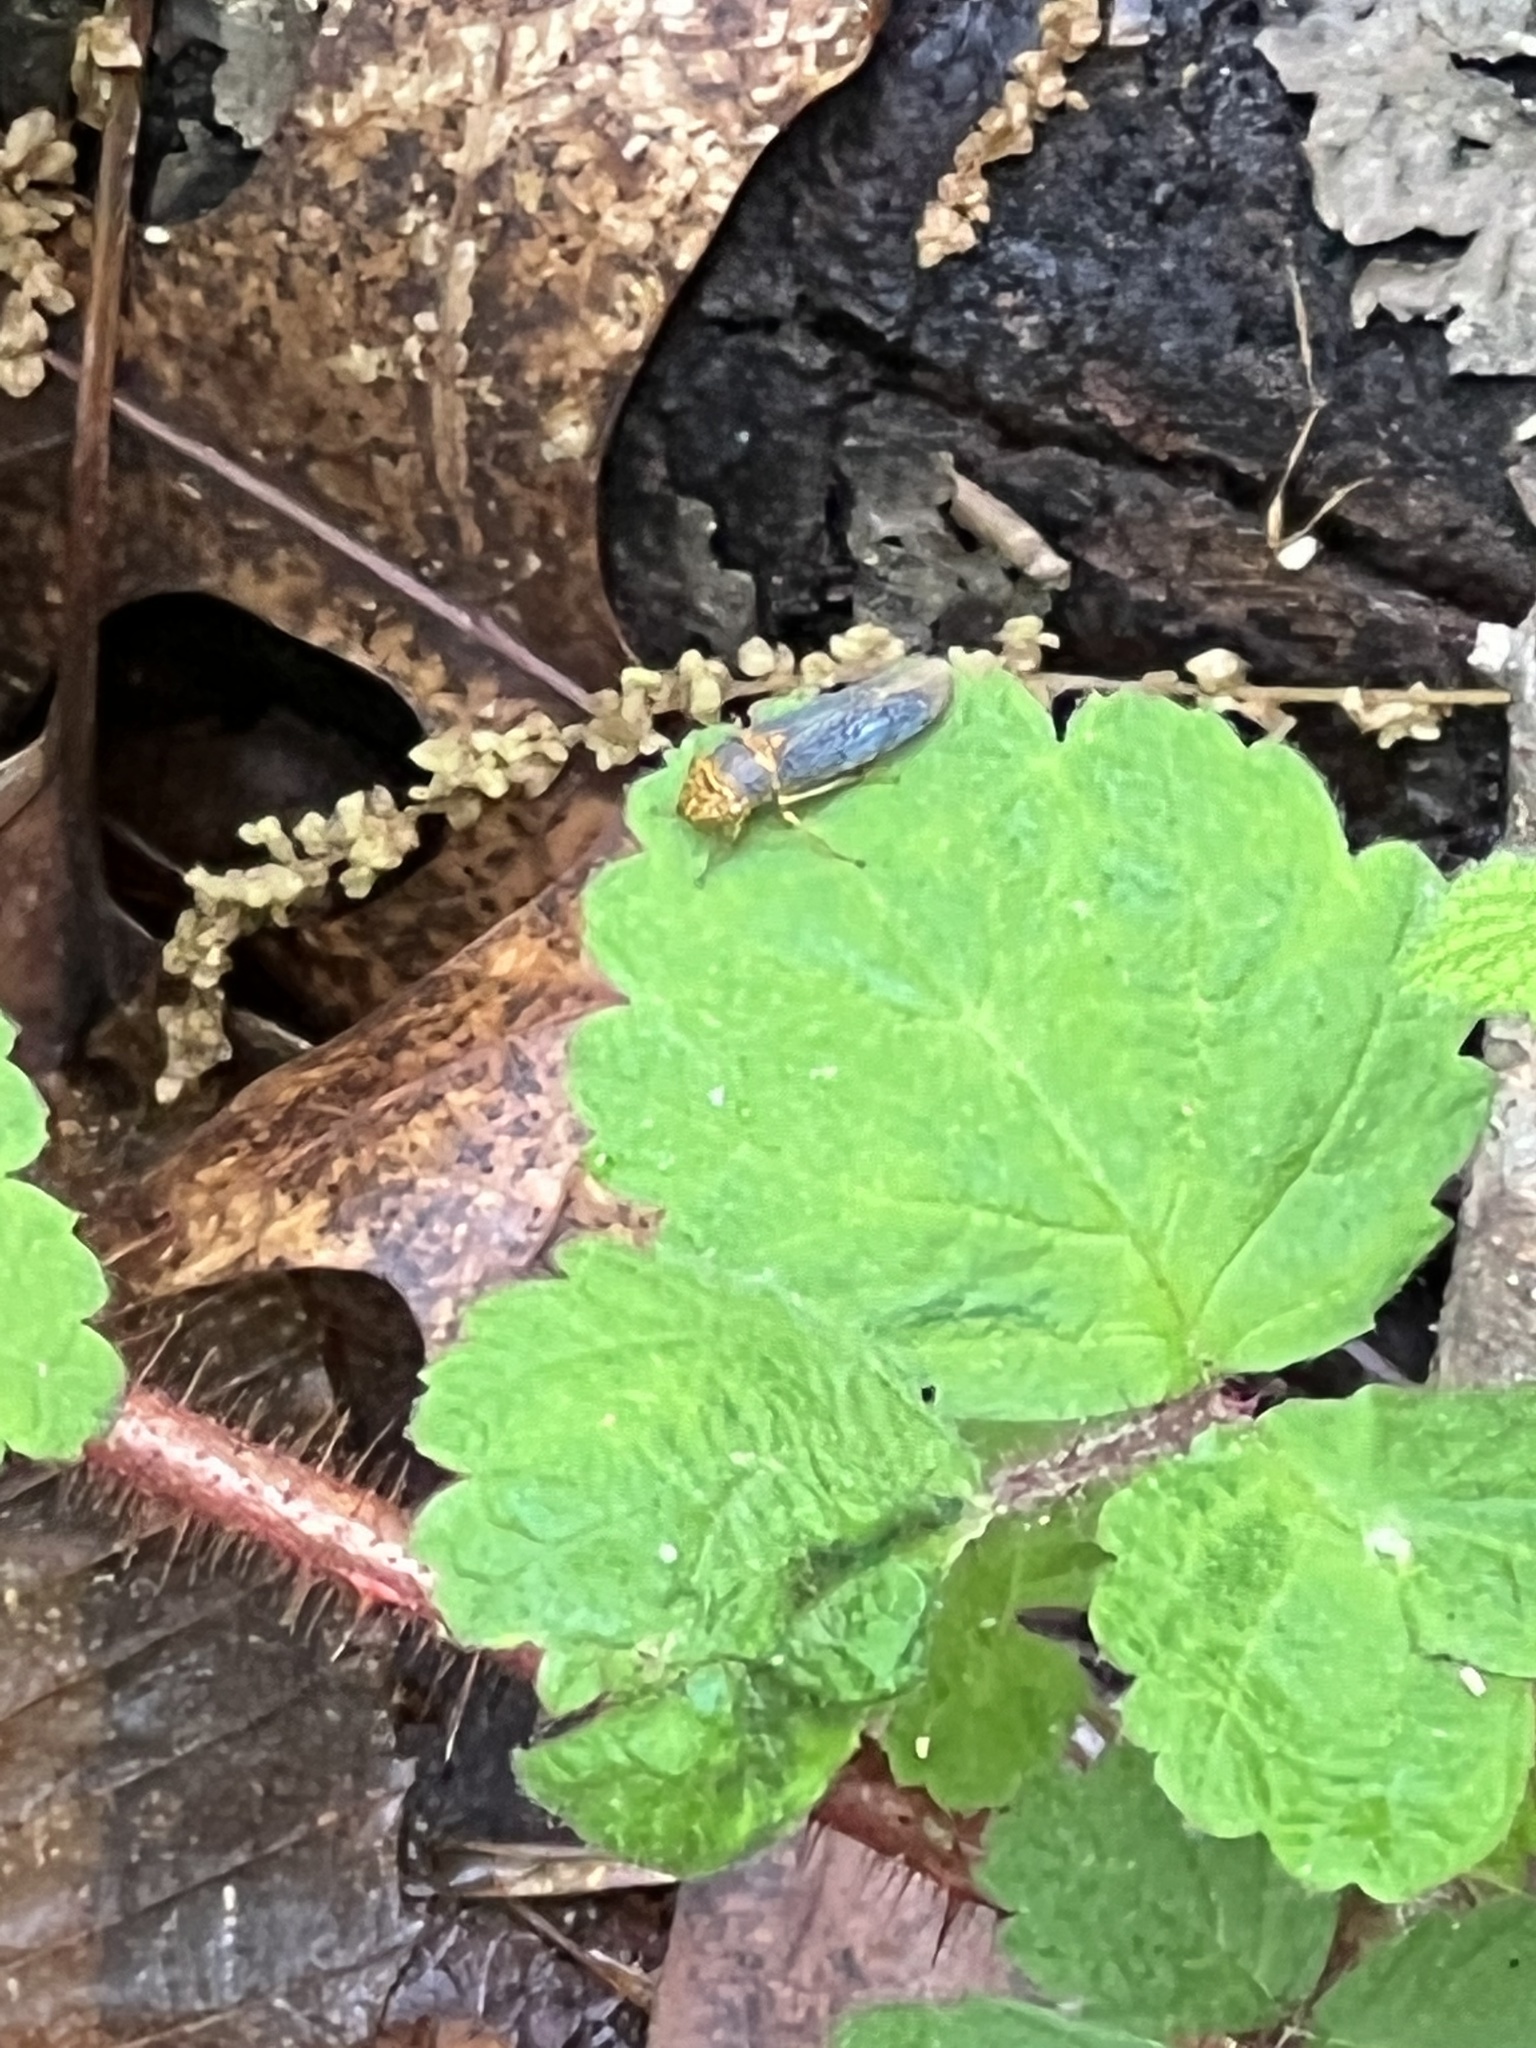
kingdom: Animalia
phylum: Arthropoda
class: Insecta
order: Hemiptera
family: Cicadellidae
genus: Oncometopia
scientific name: Oncometopia orbona
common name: Broad-headed sharpshooter
